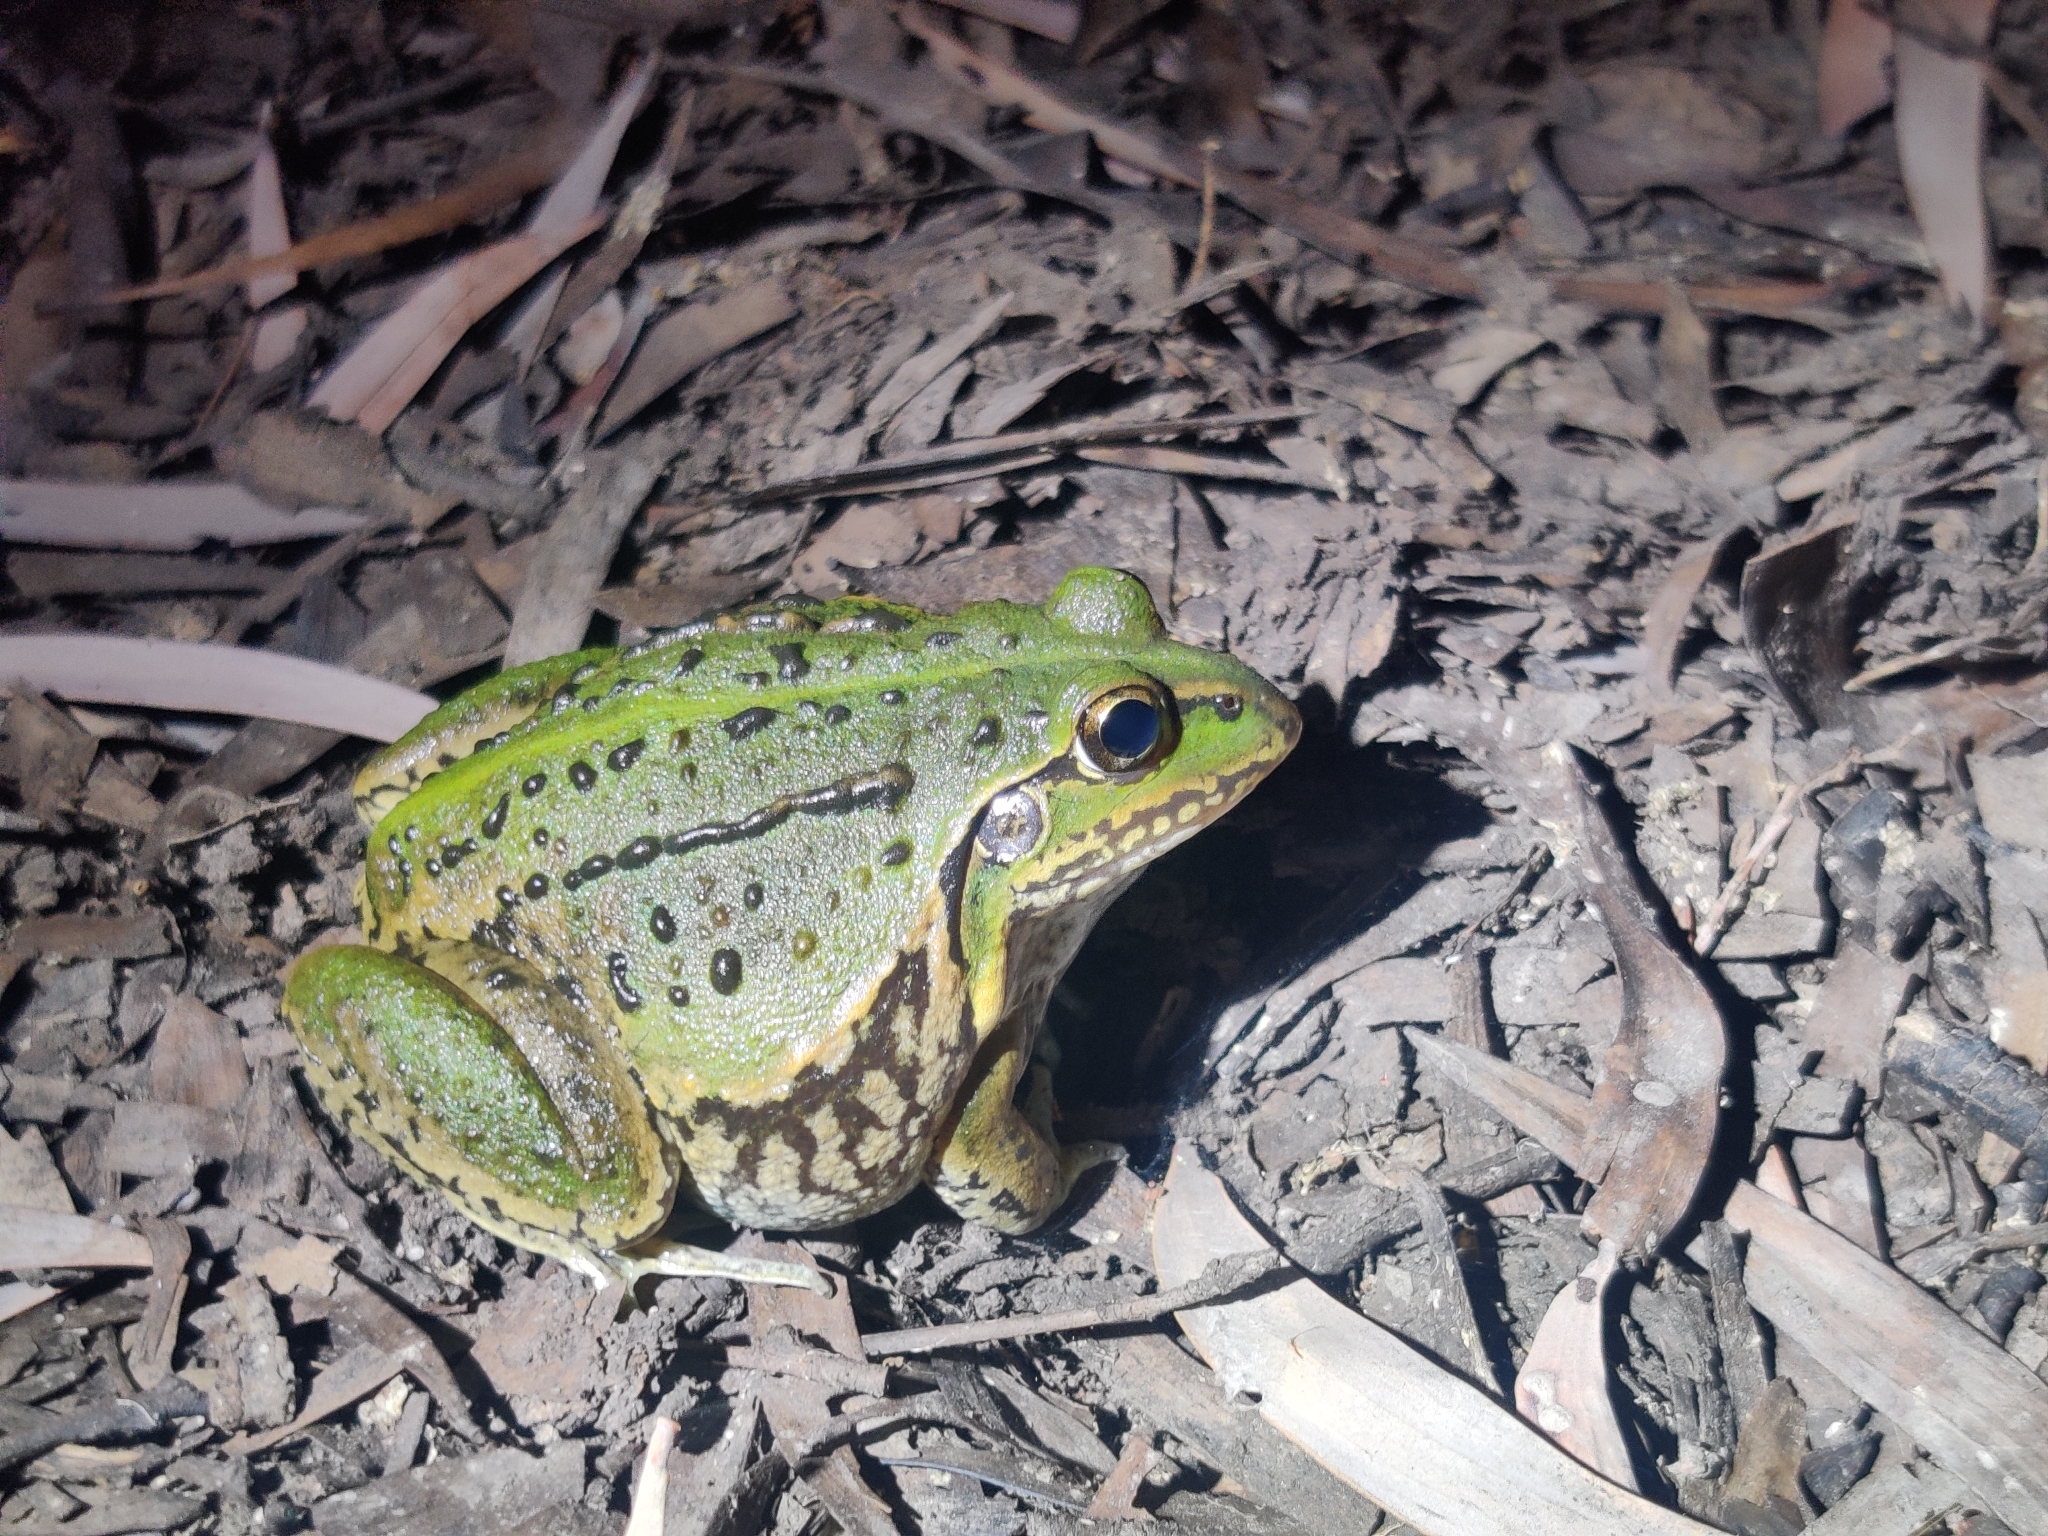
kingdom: Animalia
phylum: Chordata
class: Amphibia
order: Anura
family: Pelodryadidae
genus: Ranoidea
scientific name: Ranoidea alboguttata
